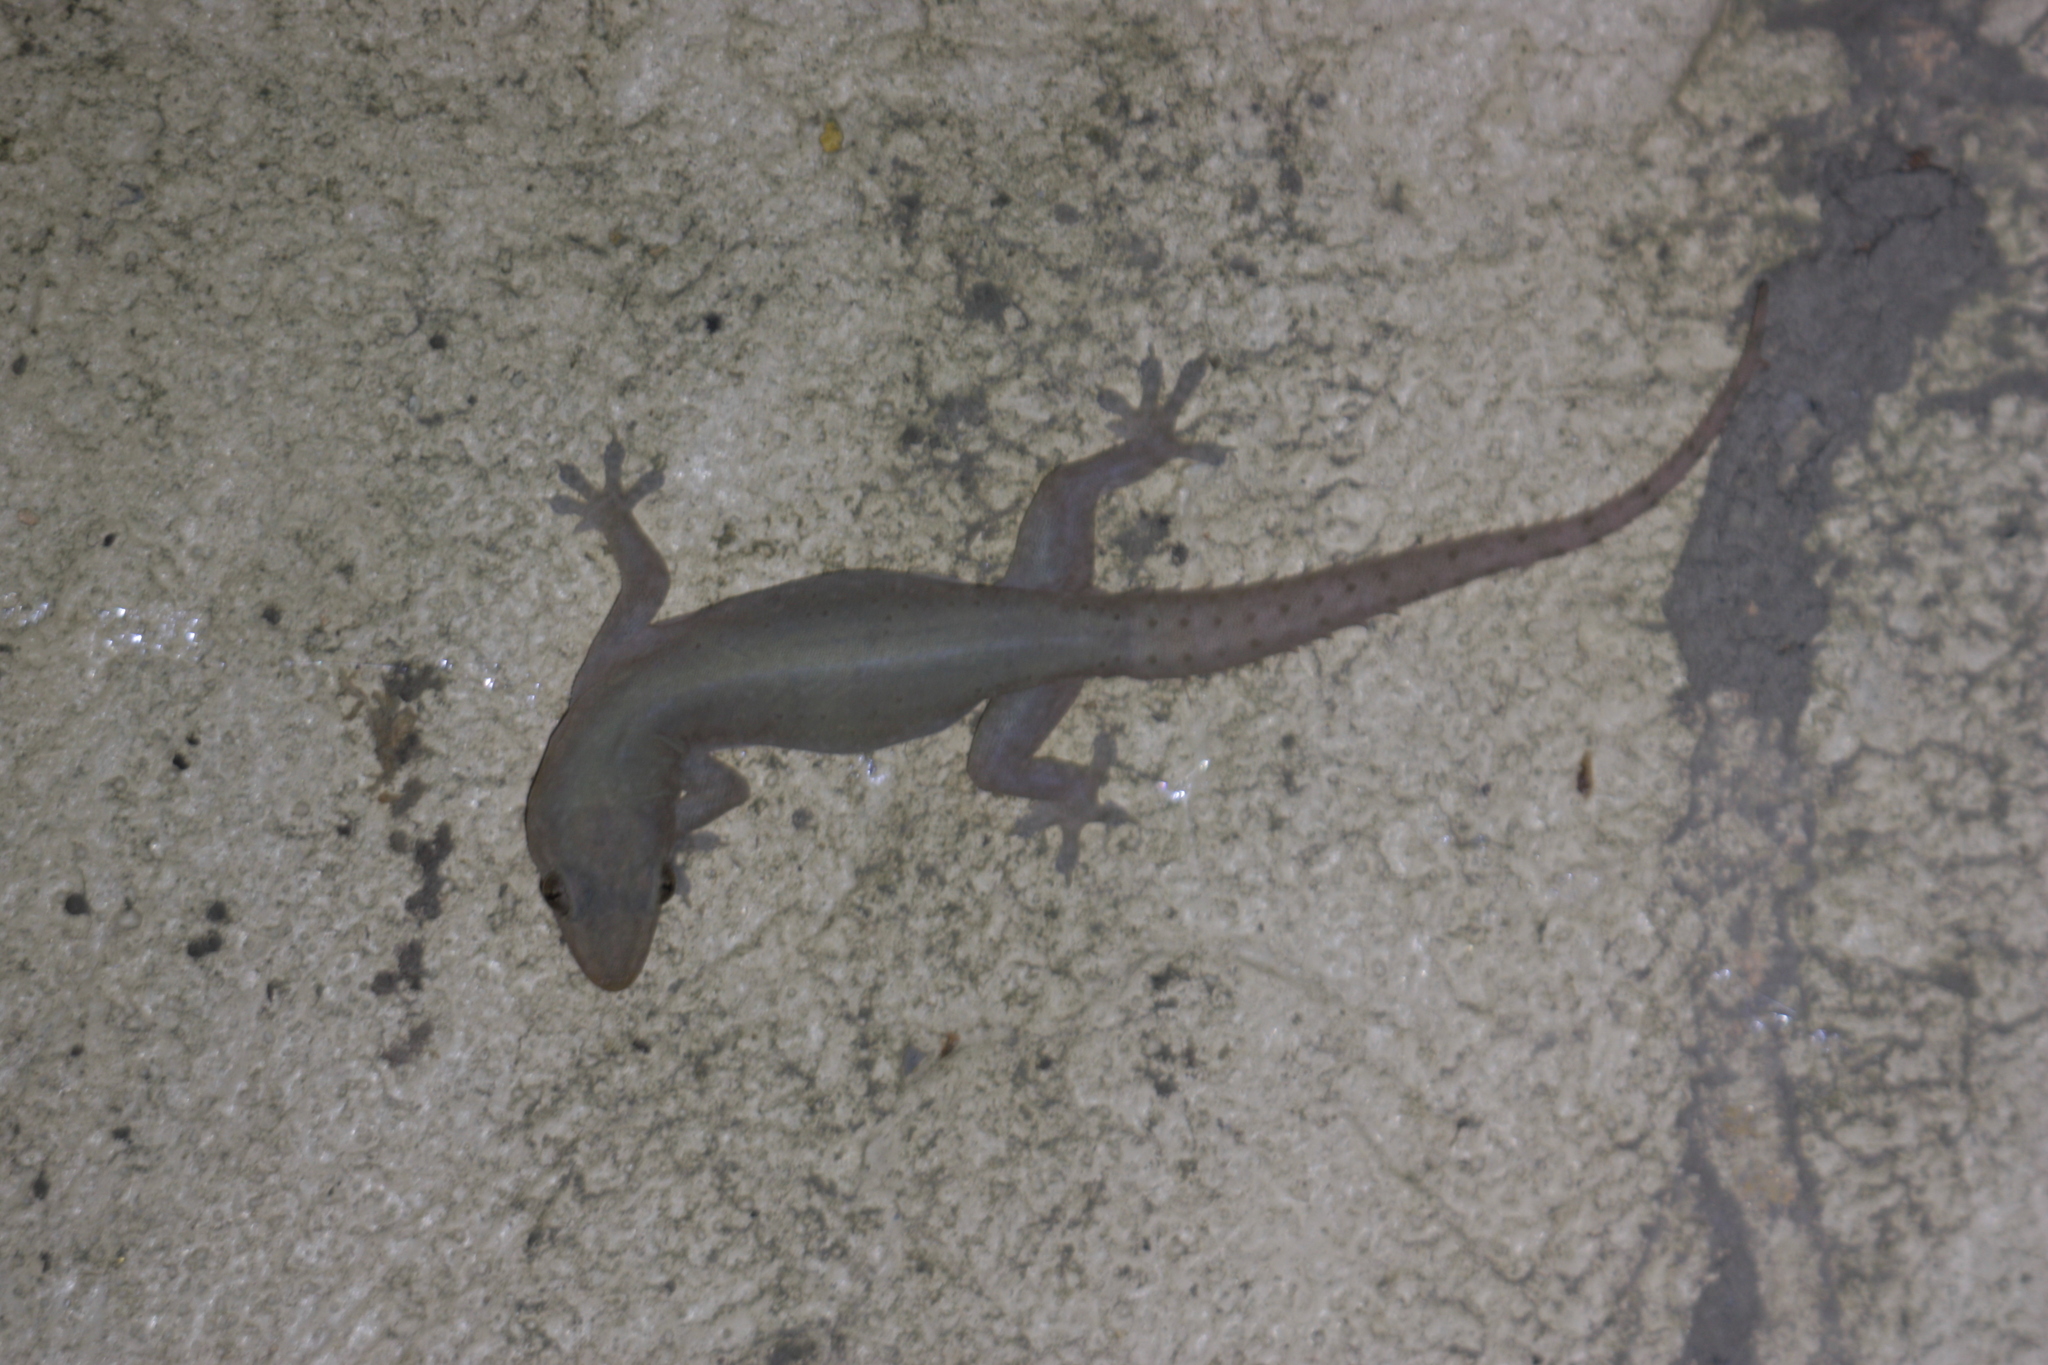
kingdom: Animalia
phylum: Chordata
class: Squamata
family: Gekkonidae
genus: Hemidactylus
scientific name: Hemidactylus frenatus
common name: Common house gecko
